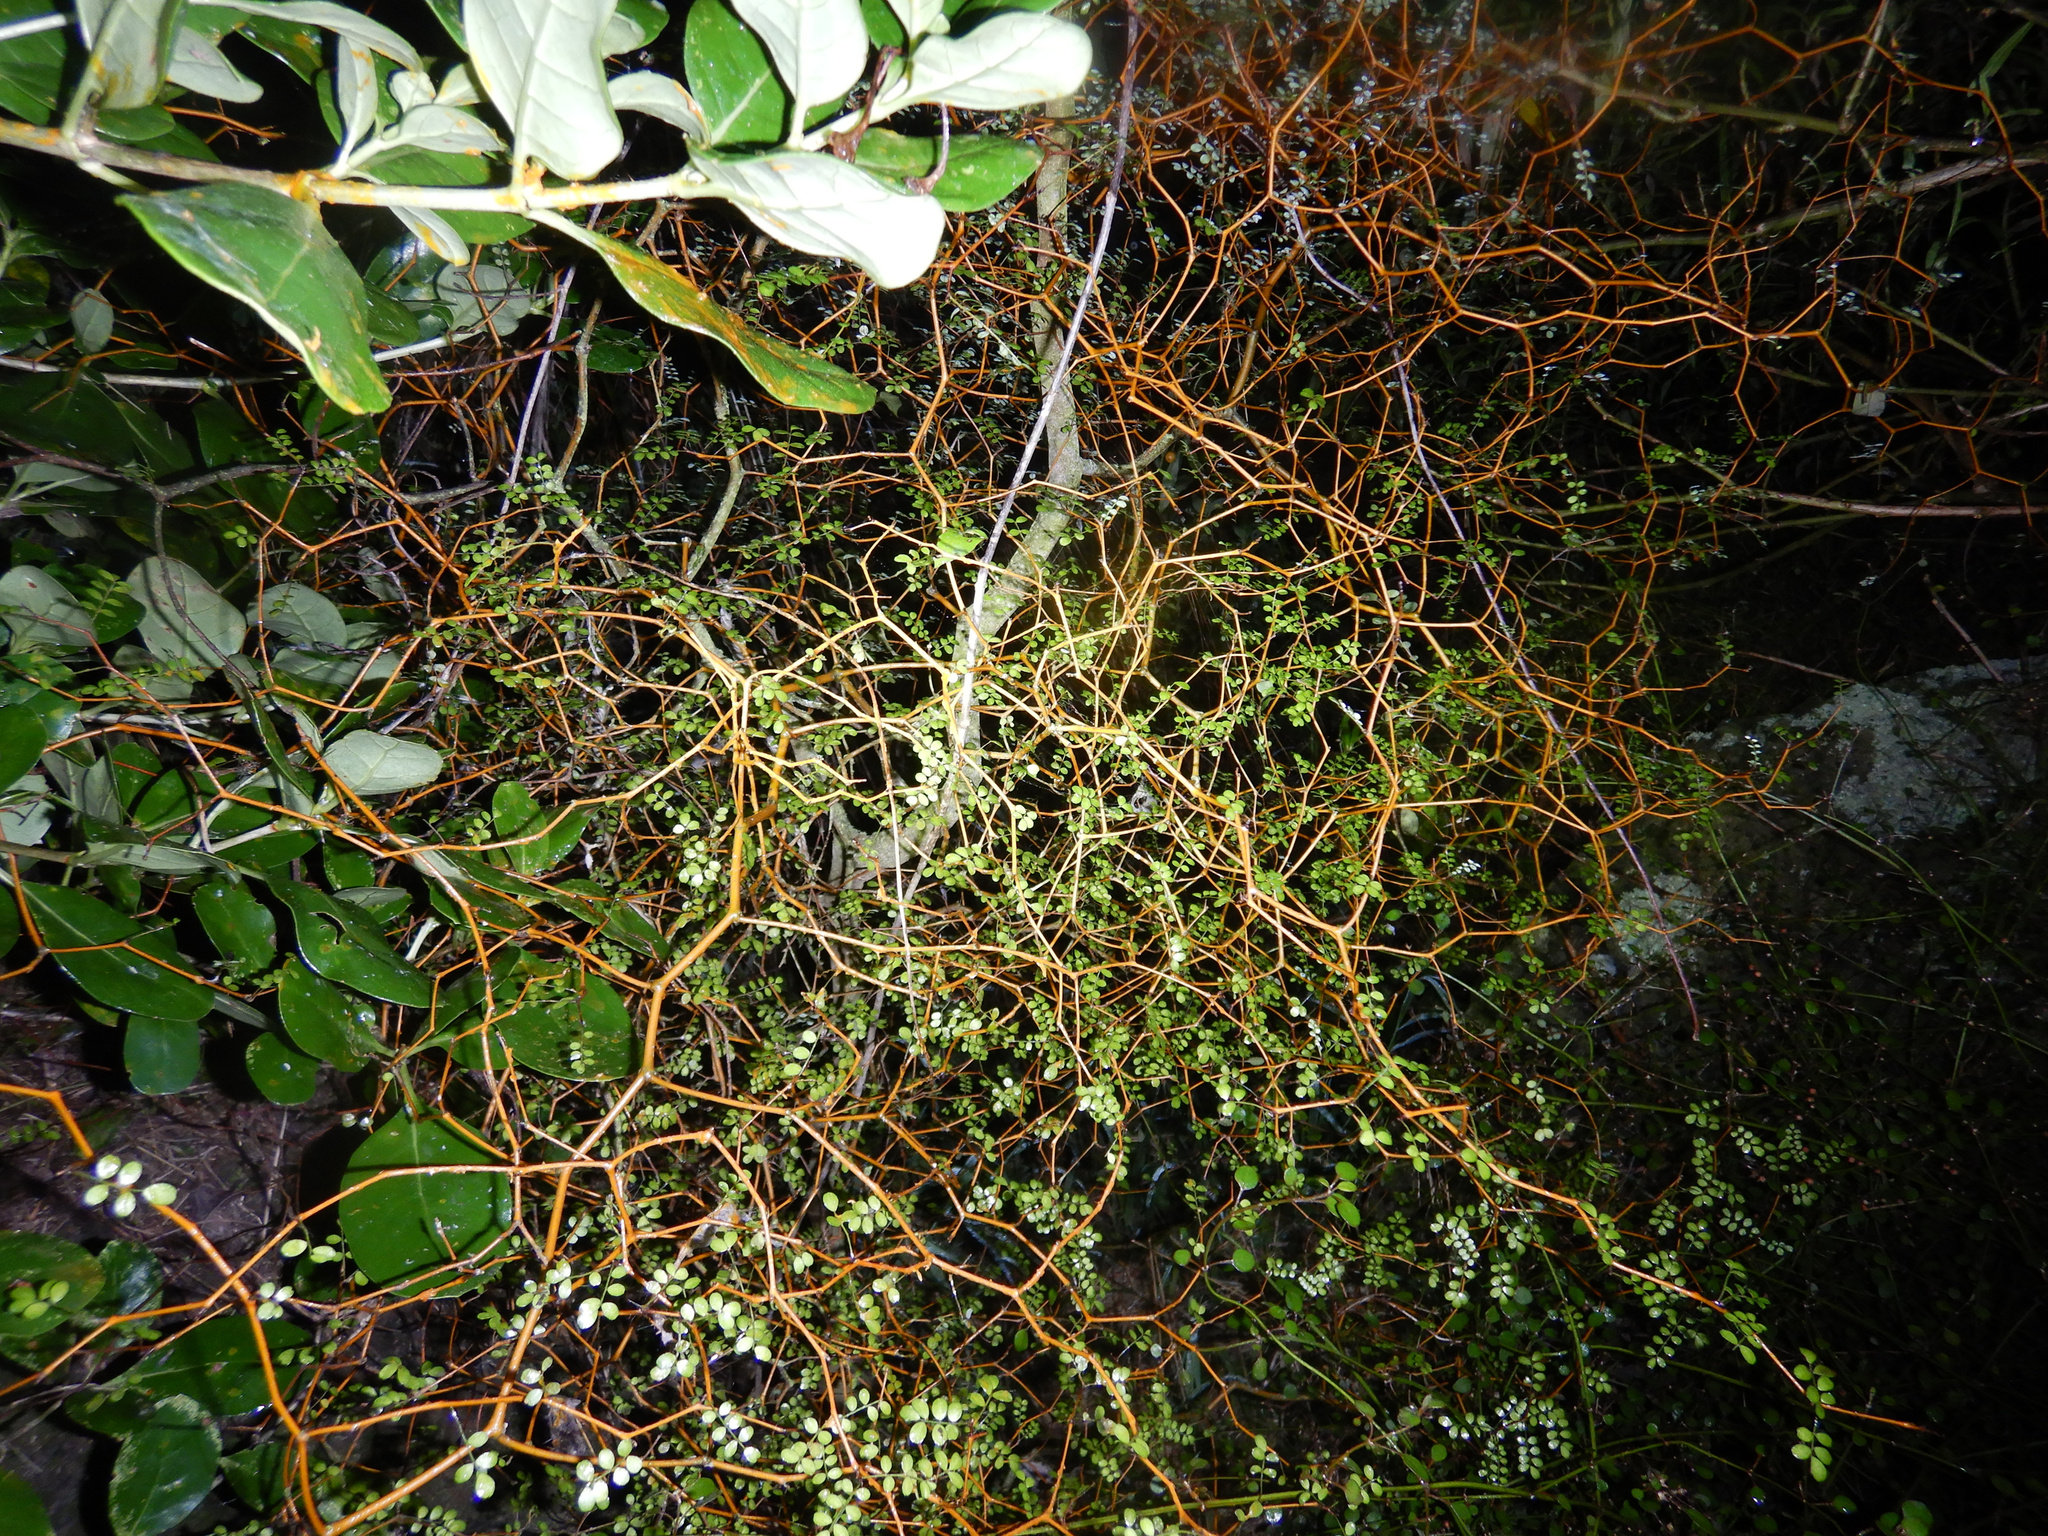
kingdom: Plantae
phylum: Tracheophyta
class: Magnoliopsida
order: Fabales
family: Fabaceae
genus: Sophora
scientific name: Sophora microphylla
